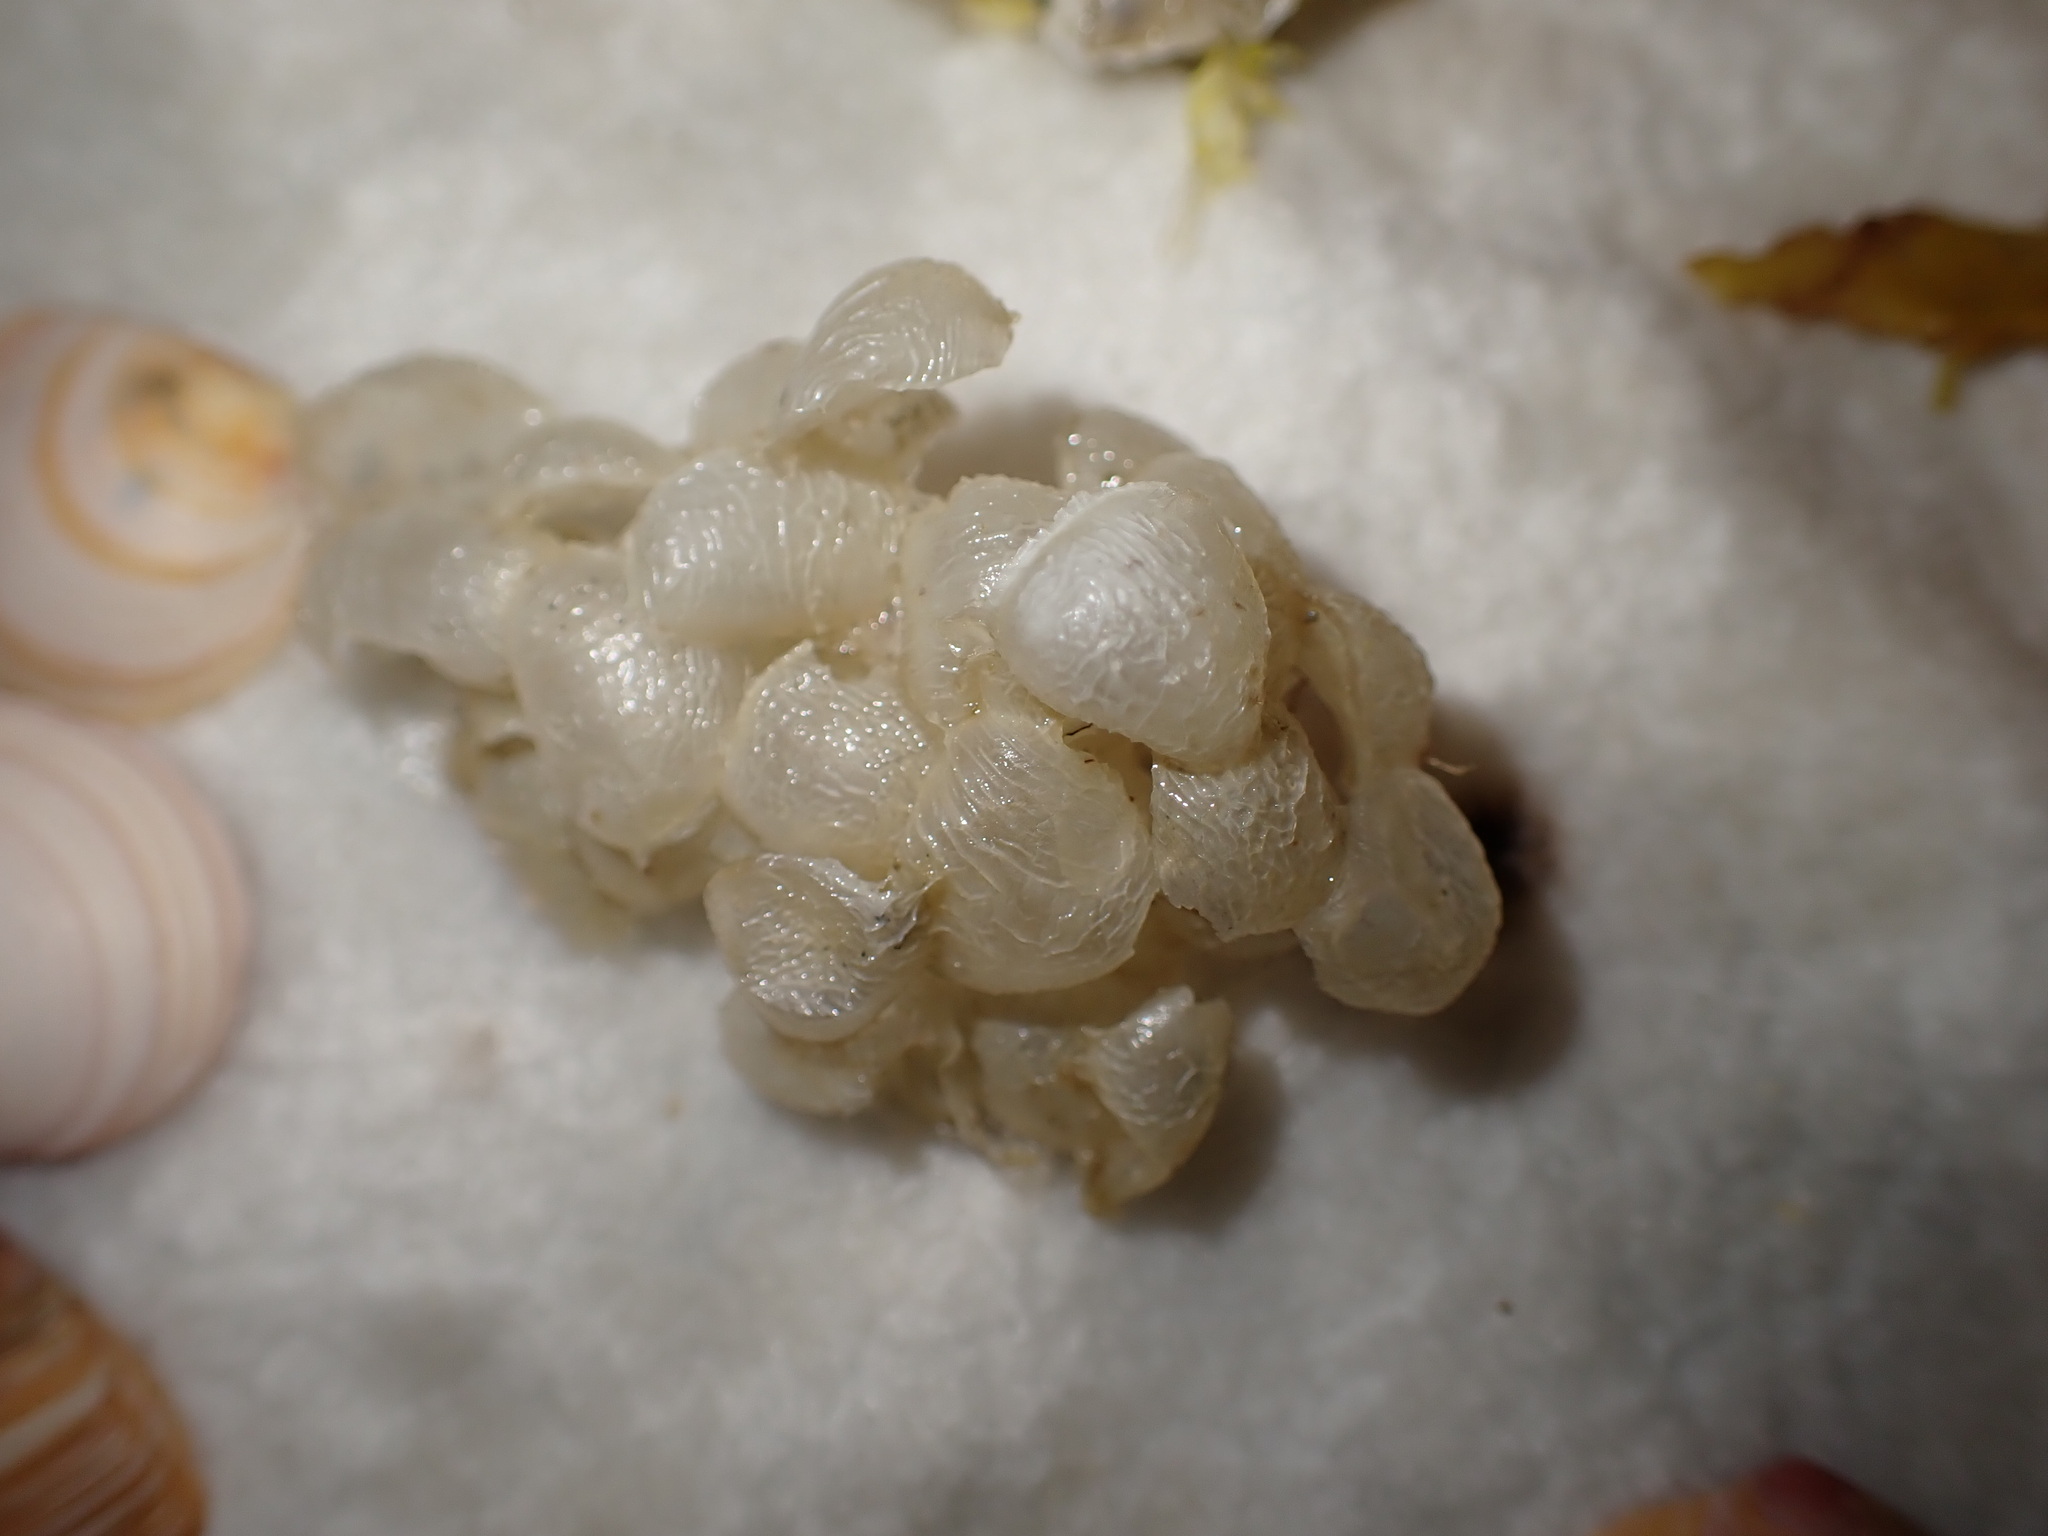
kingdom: Animalia
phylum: Mollusca
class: Gastropoda
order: Neogastropoda
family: Buccinidae
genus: Buccinum
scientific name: Buccinum undatum
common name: Common whelk
